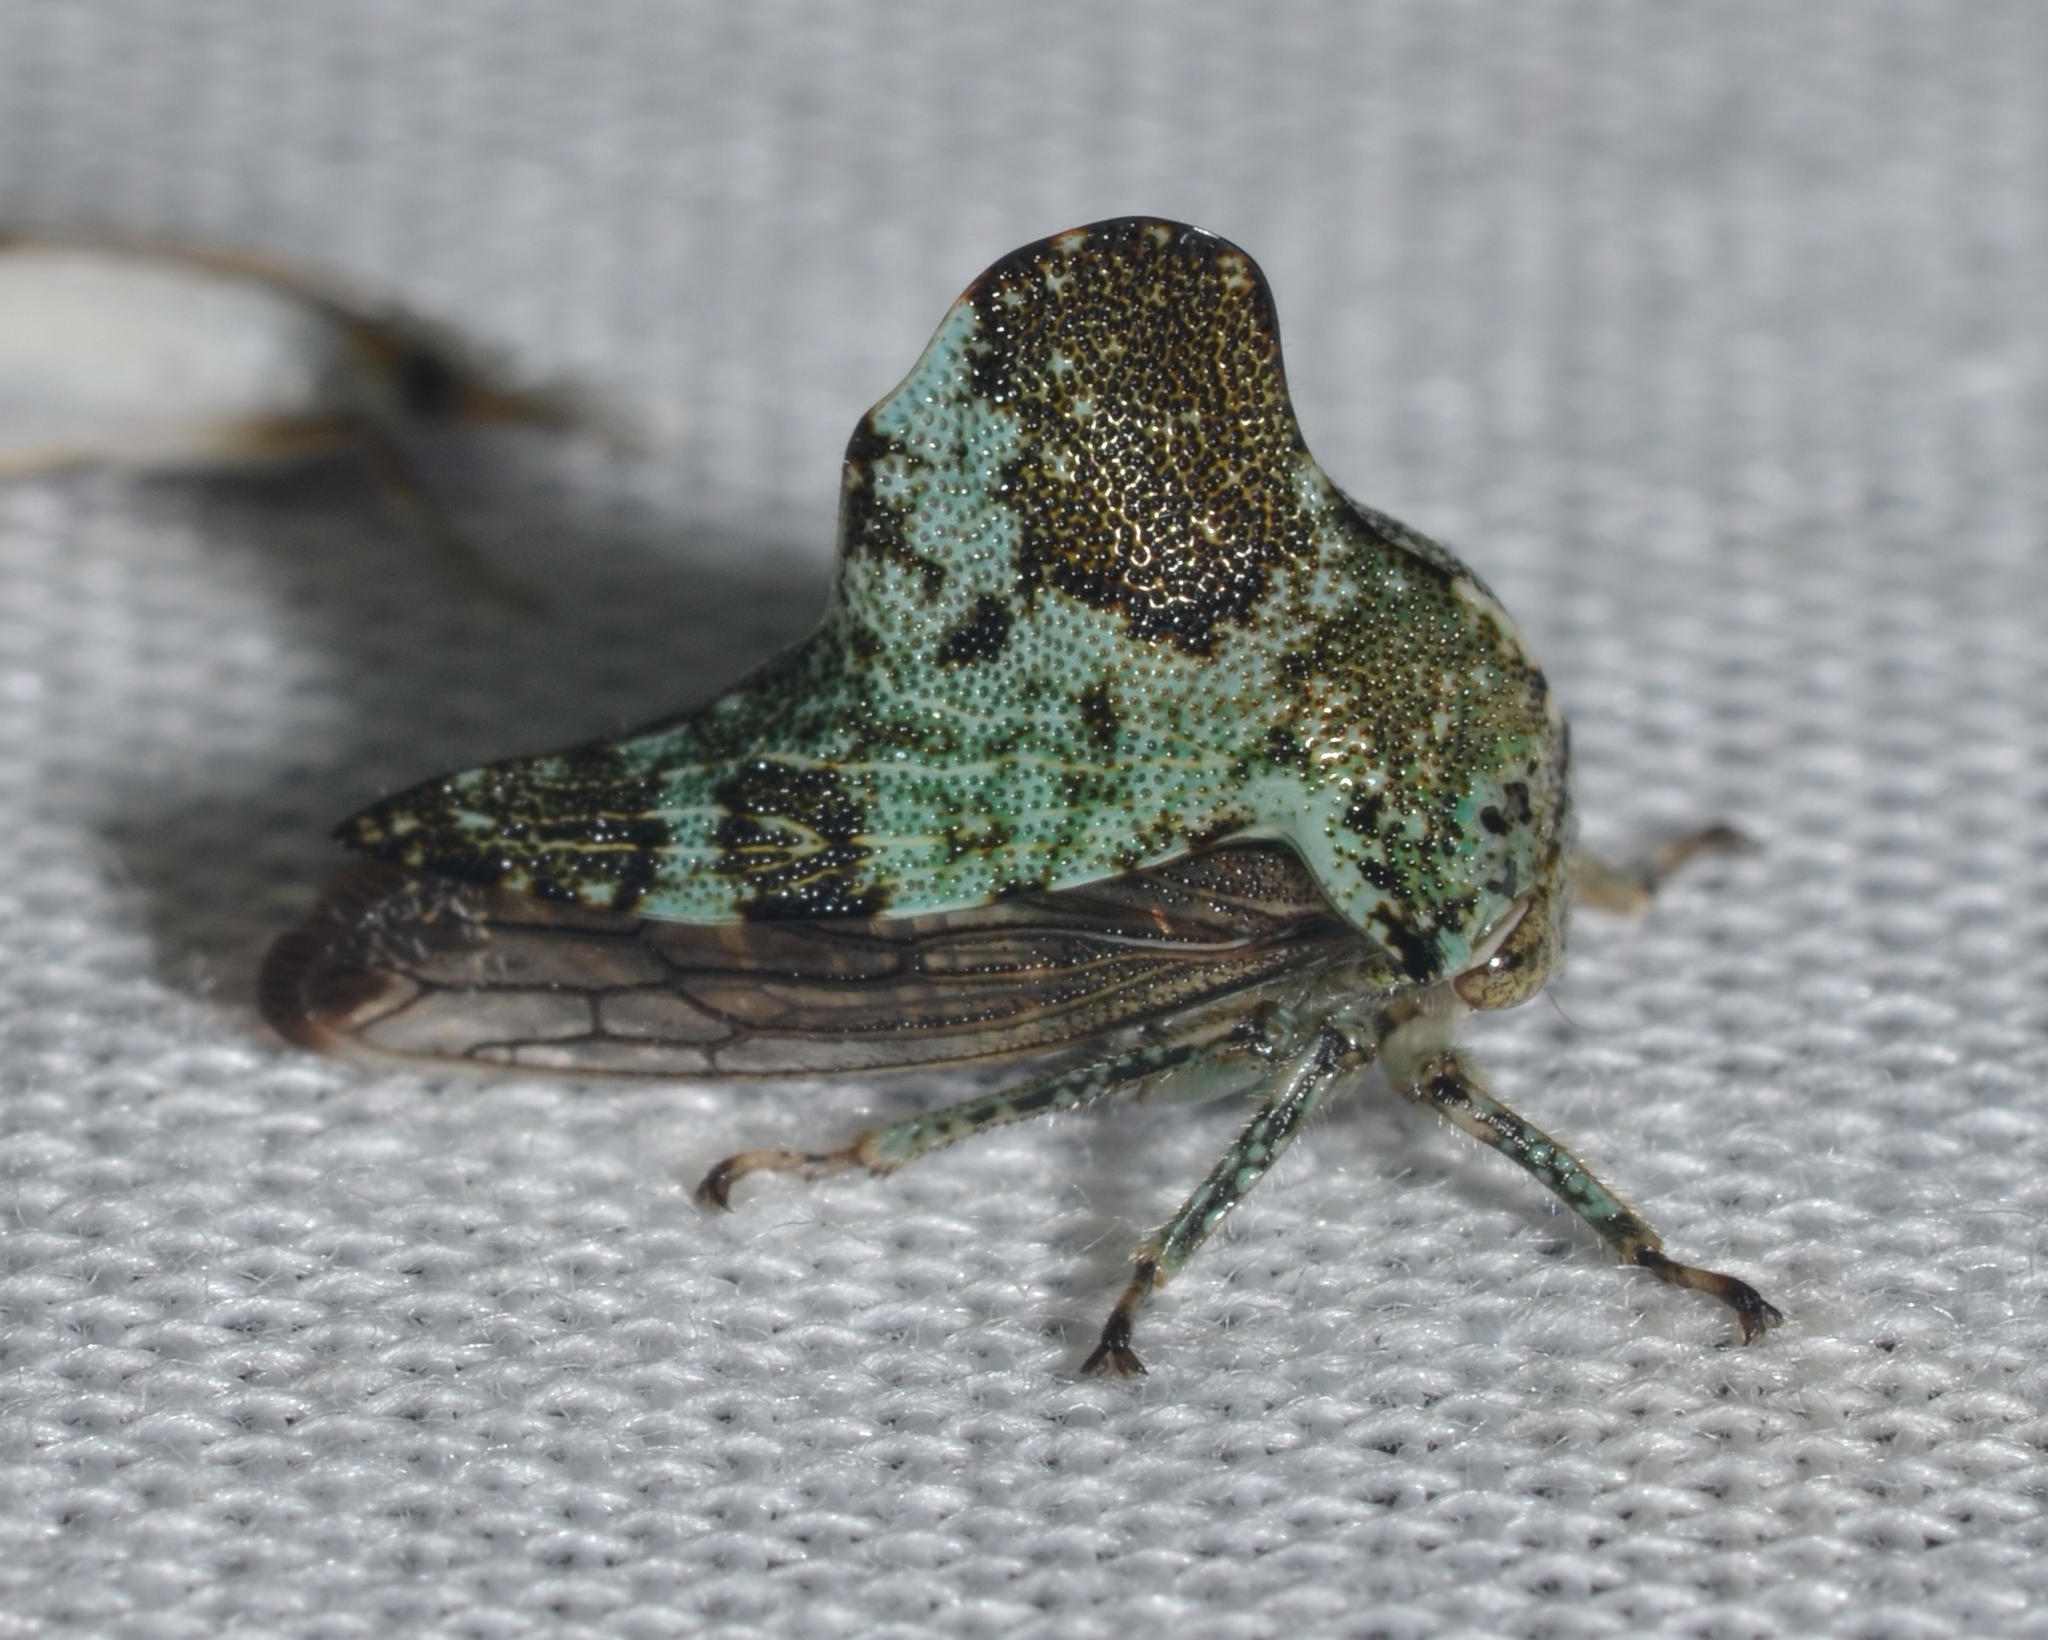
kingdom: Animalia
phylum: Arthropoda
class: Insecta
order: Hemiptera
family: Membracidae
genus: Telamona
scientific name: Telamona concava
